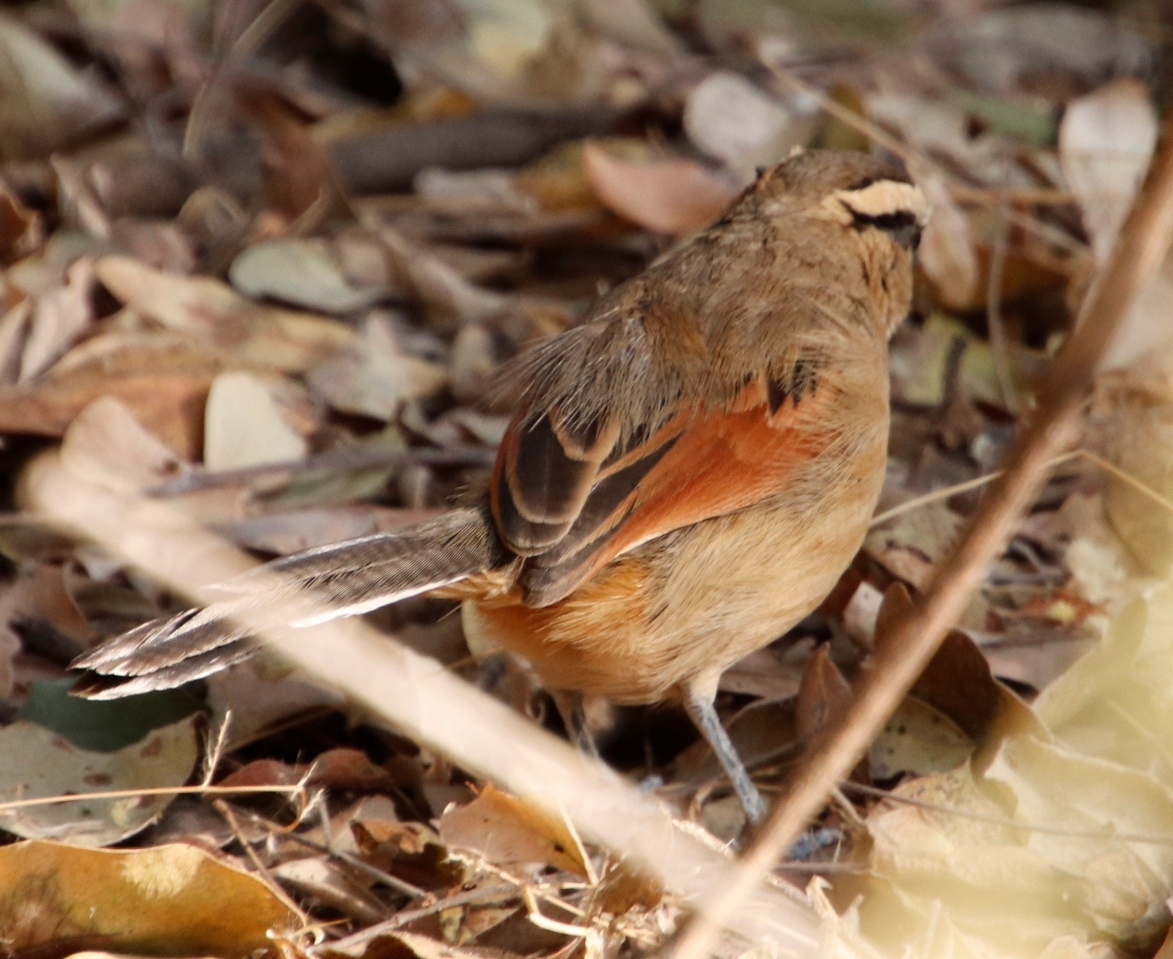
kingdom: Animalia
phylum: Chordata
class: Aves
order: Passeriformes
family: Malaconotidae
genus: Tchagra
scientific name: Tchagra australis
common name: Brown-crowned tchagra
